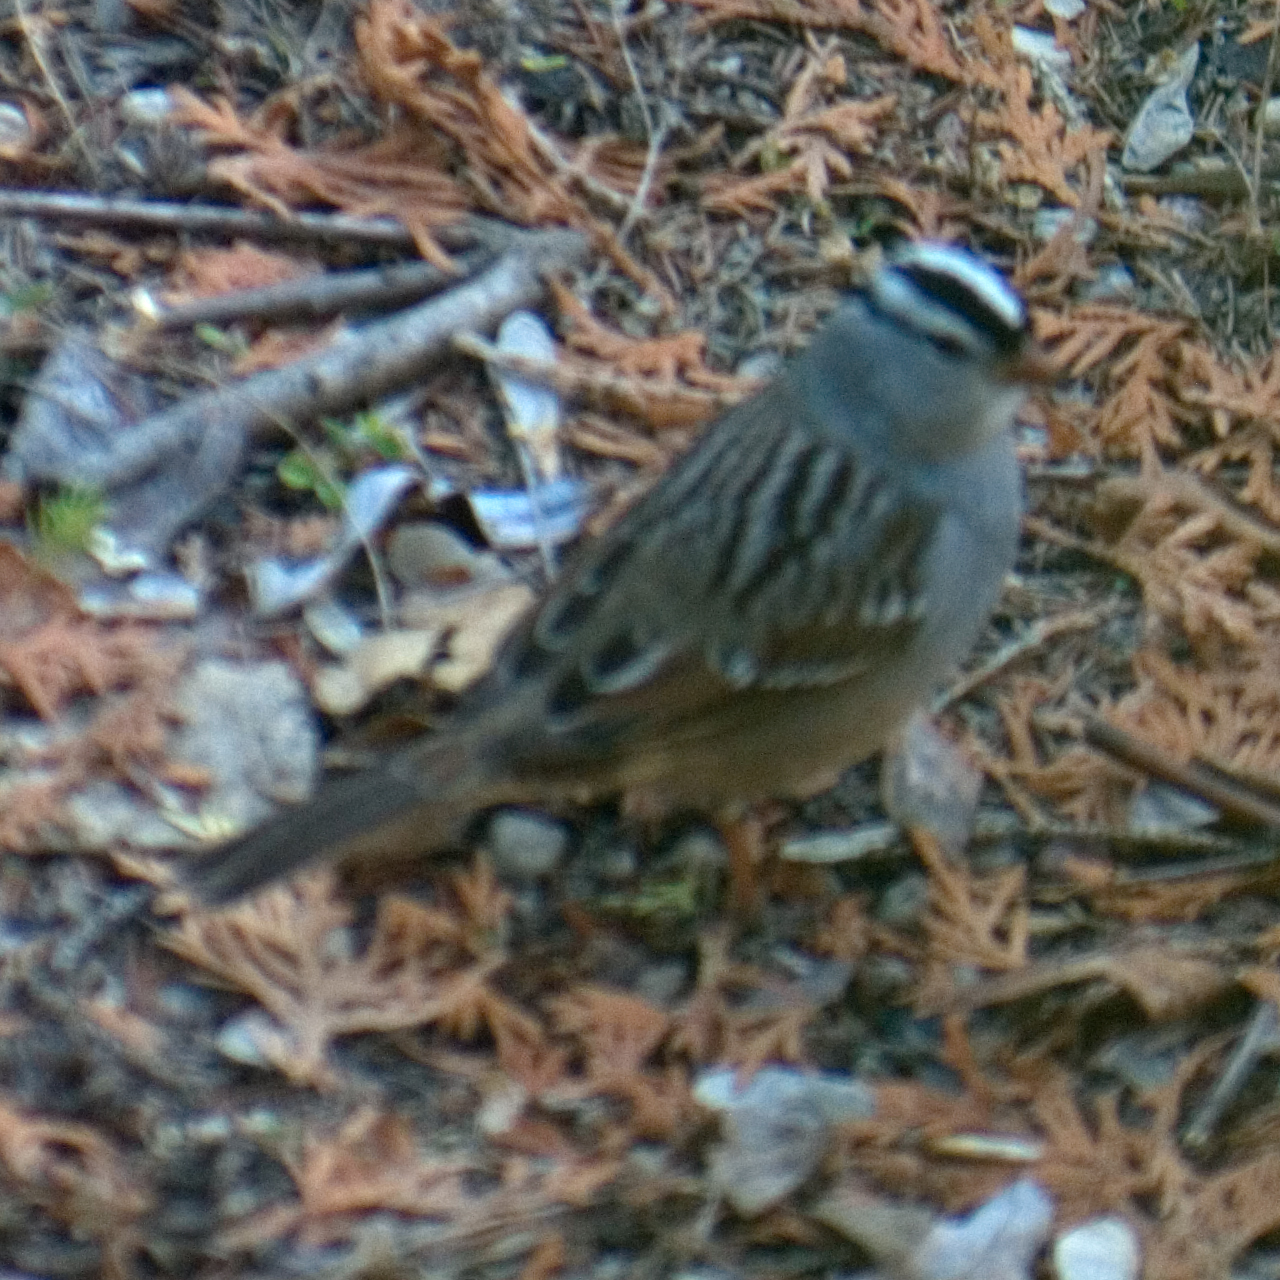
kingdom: Animalia
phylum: Chordata
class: Aves
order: Passeriformes
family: Passerellidae
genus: Zonotrichia
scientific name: Zonotrichia leucophrys
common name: White-crowned sparrow
